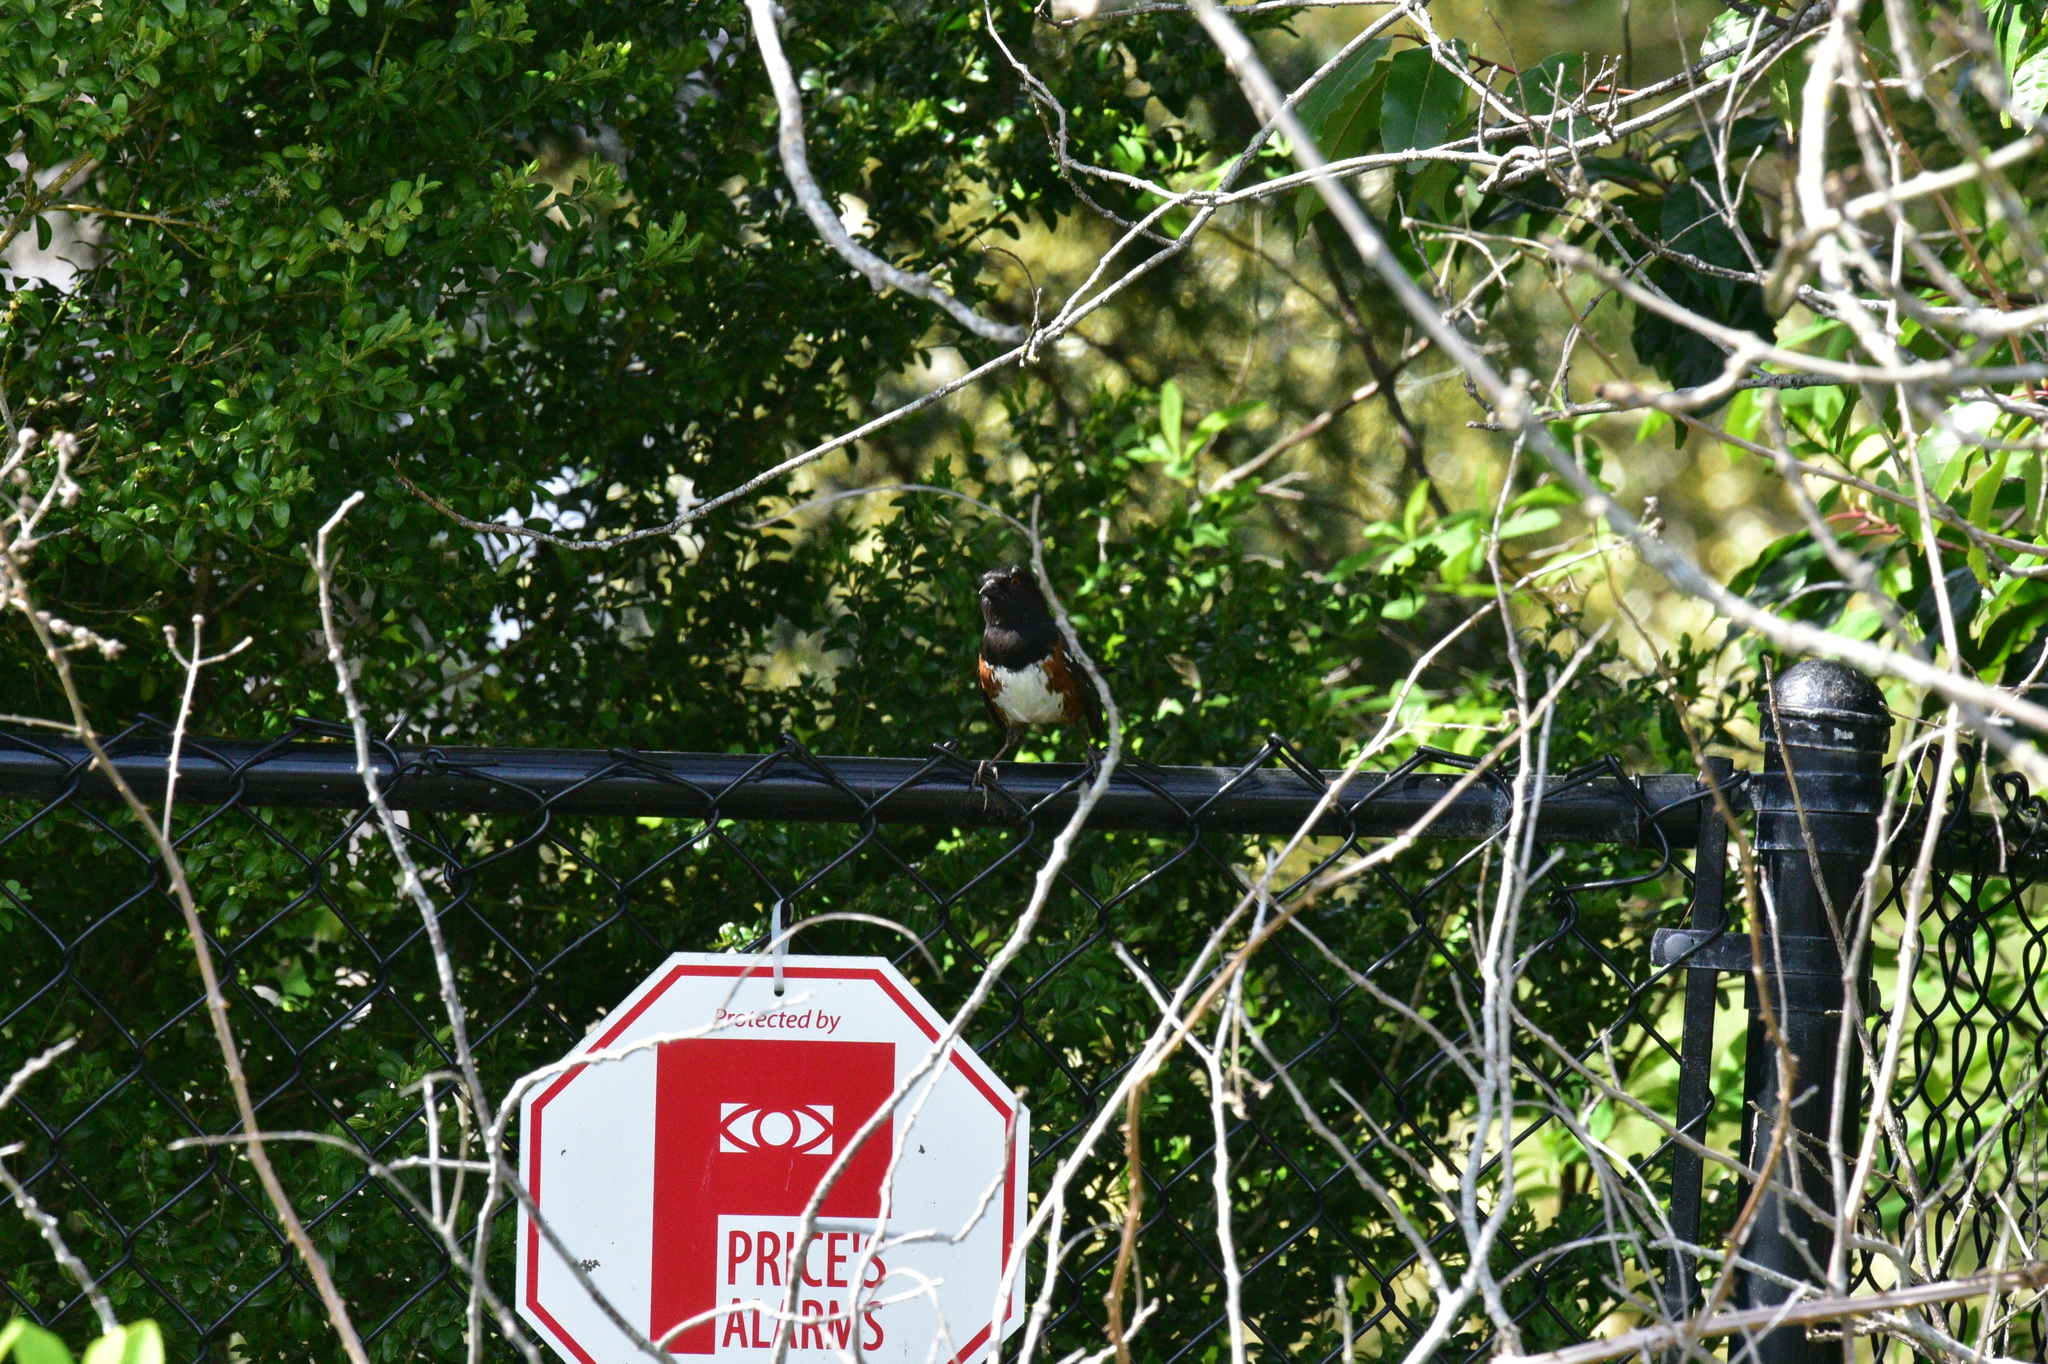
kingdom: Animalia
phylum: Chordata
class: Aves
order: Passeriformes
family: Passerellidae
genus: Pipilo
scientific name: Pipilo maculatus
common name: Spotted towhee
